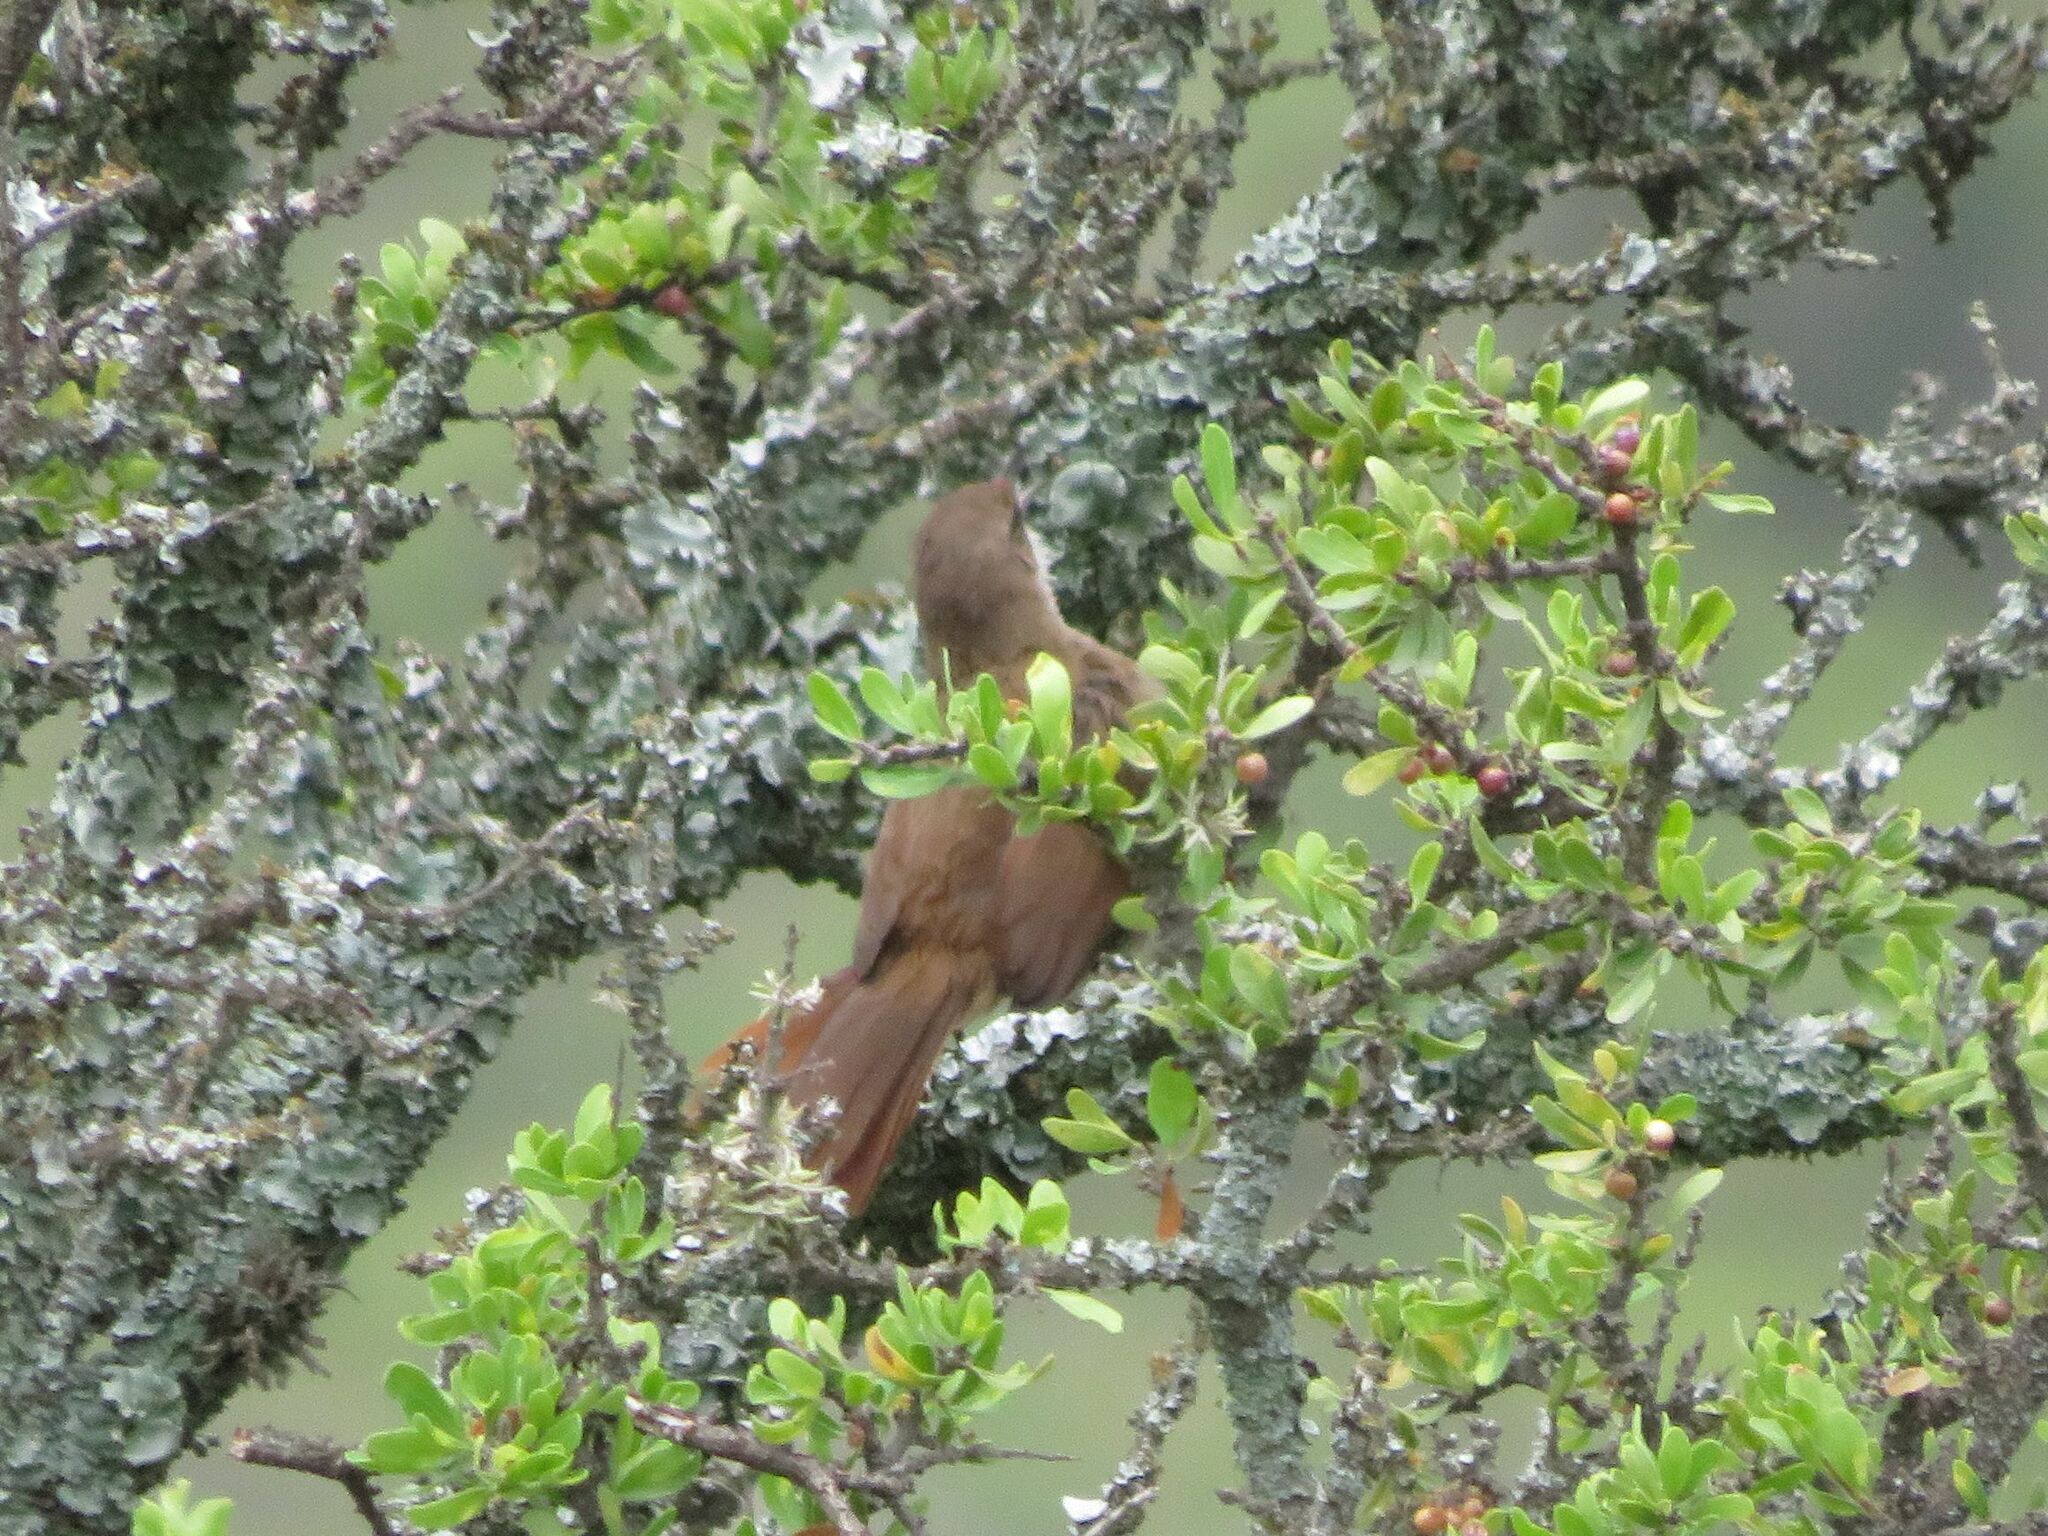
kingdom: Animalia
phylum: Chordata
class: Aves
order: Passeriformes
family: Furnariidae
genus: Upucerthia
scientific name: Upucerthia certhioides
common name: Chaco earthcreeper
